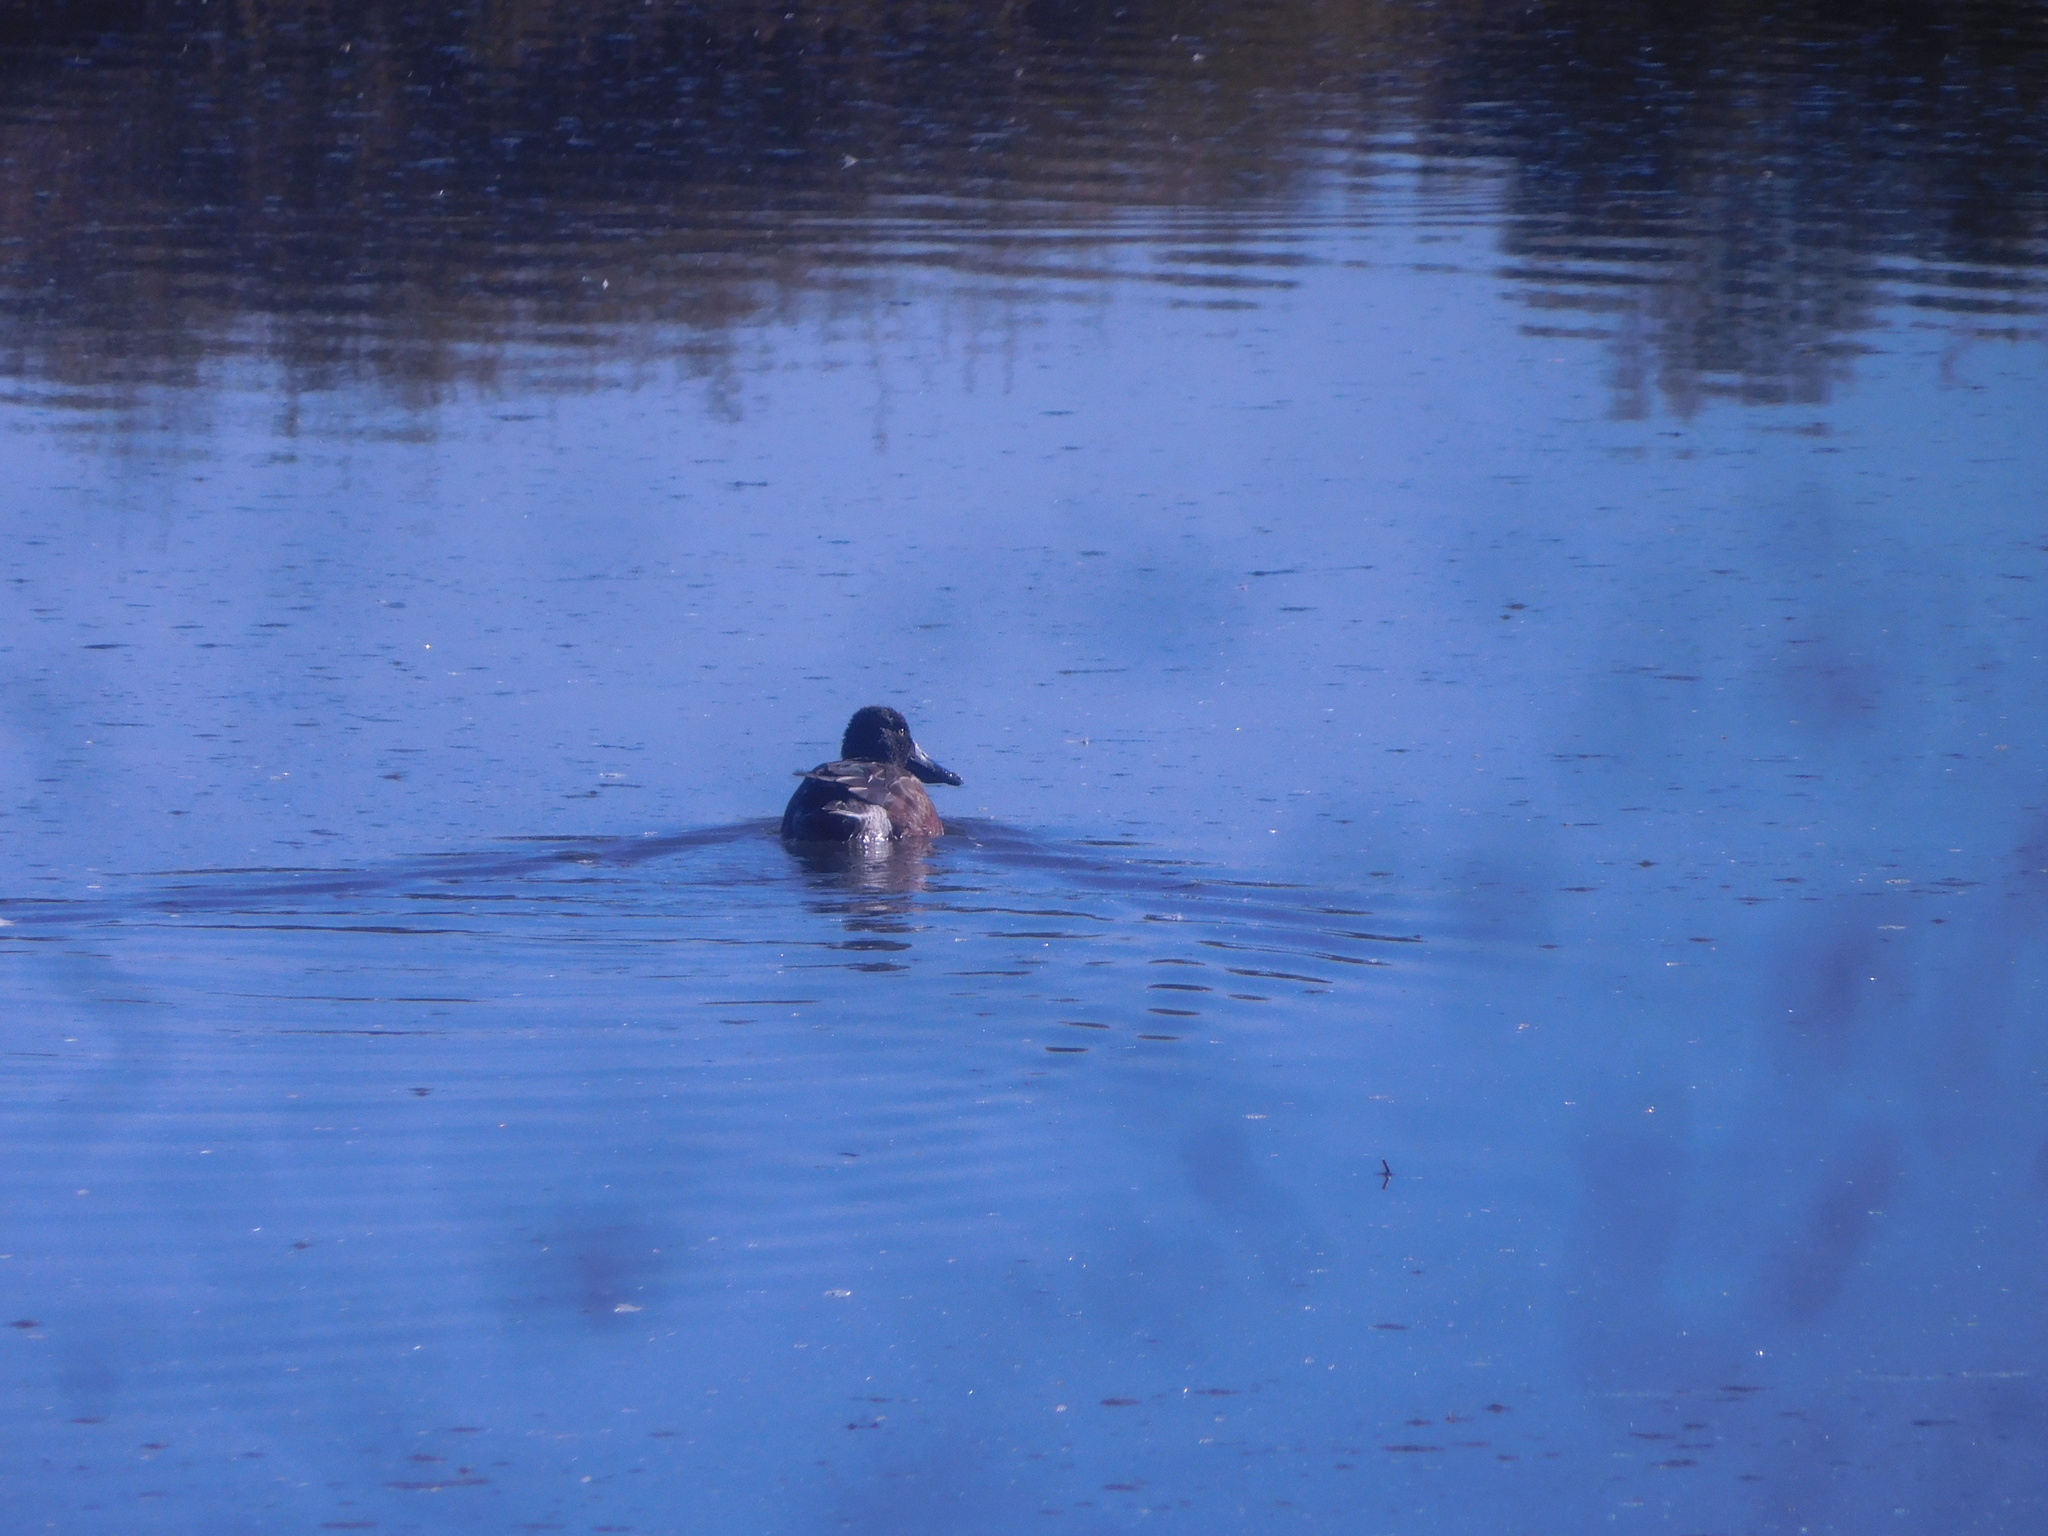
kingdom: Animalia
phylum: Chordata
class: Aves
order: Anseriformes
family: Anatidae
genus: Spatula
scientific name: Spatula clypeata
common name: Northern shoveler
